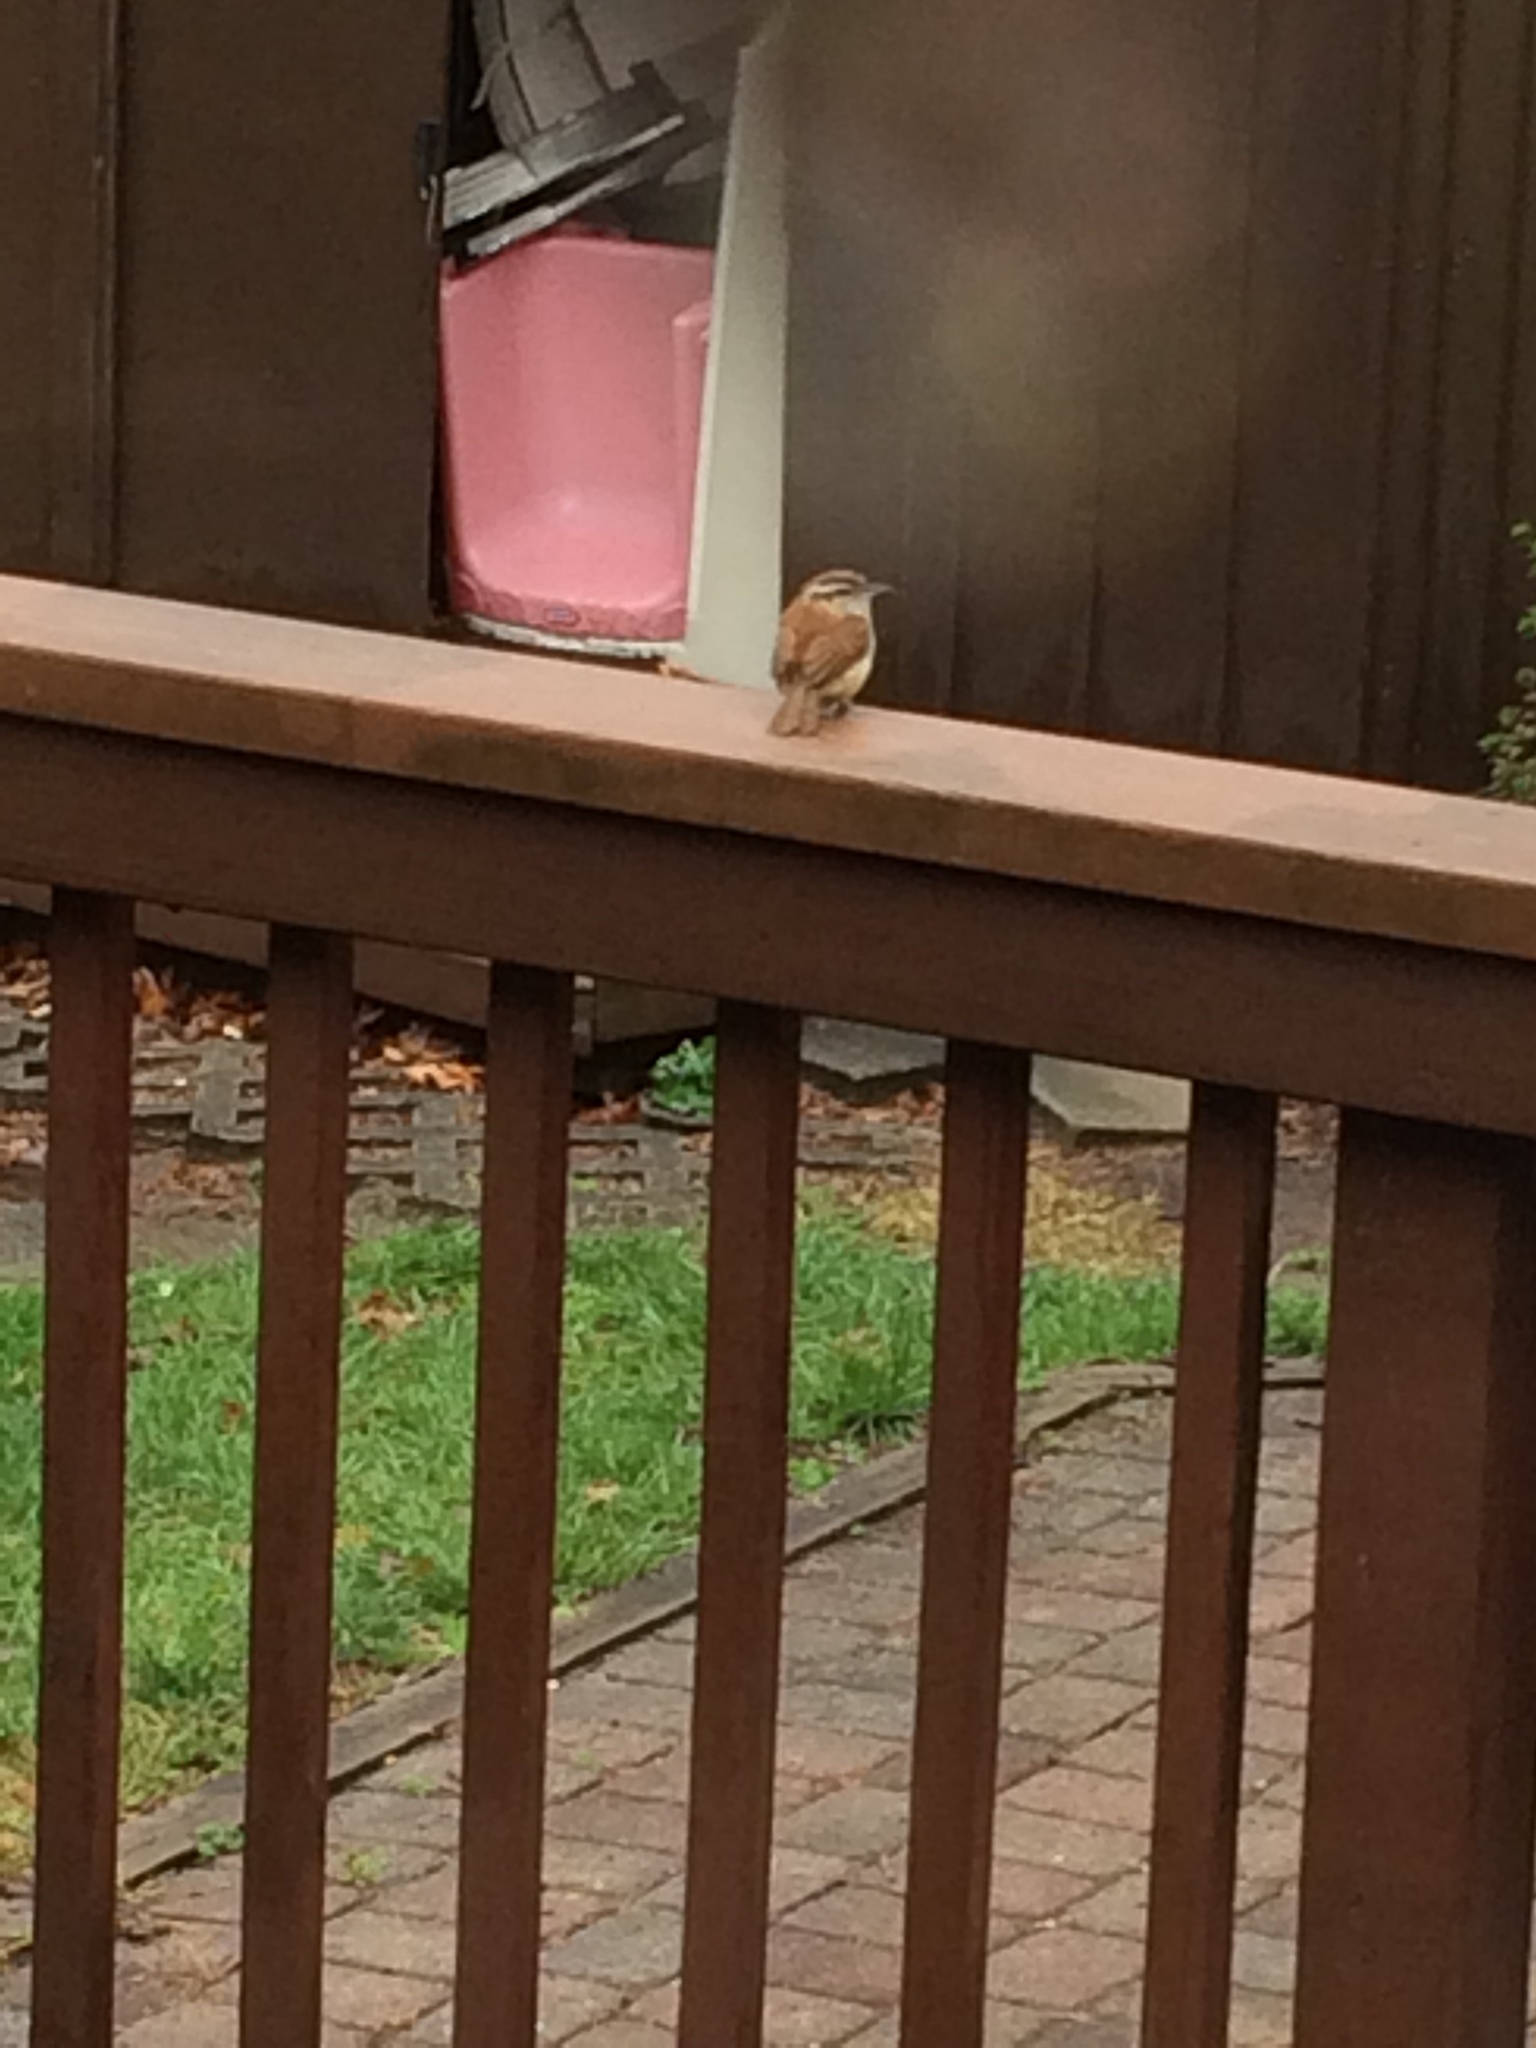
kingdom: Animalia
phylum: Chordata
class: Aves
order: Passeriformes
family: Troglodytidae
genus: Thryothorus
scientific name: Thryothorus ludovicianus
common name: Carolina wren
